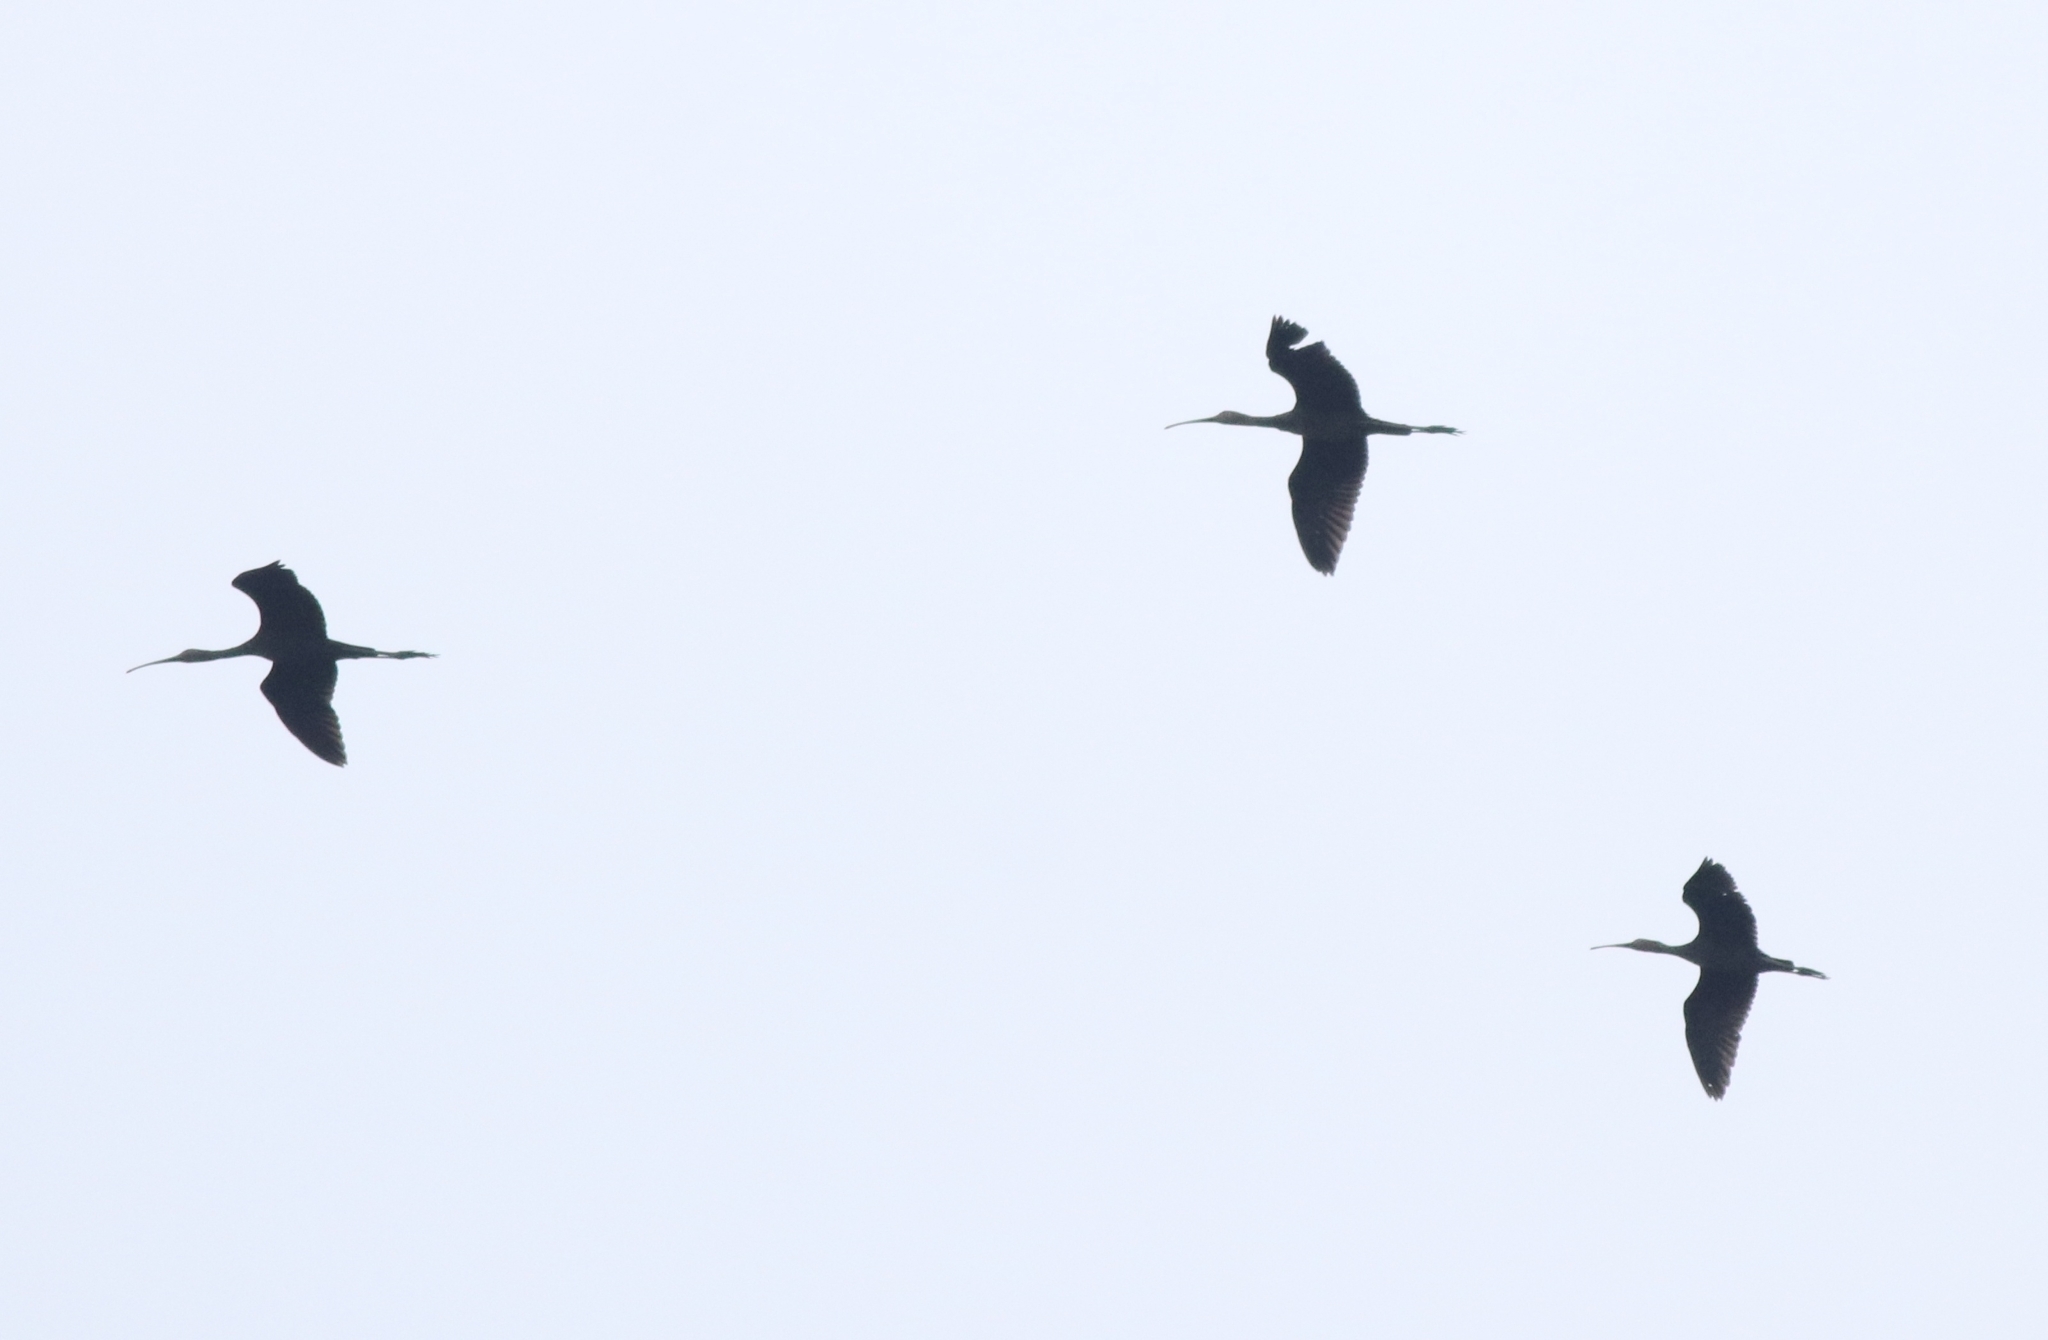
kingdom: Animalia
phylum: Chordata
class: Aves
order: Pelecaniformes
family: Threskiornithidae
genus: Plegadis
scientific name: Plegadis falcinellus
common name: Glossy ibis
